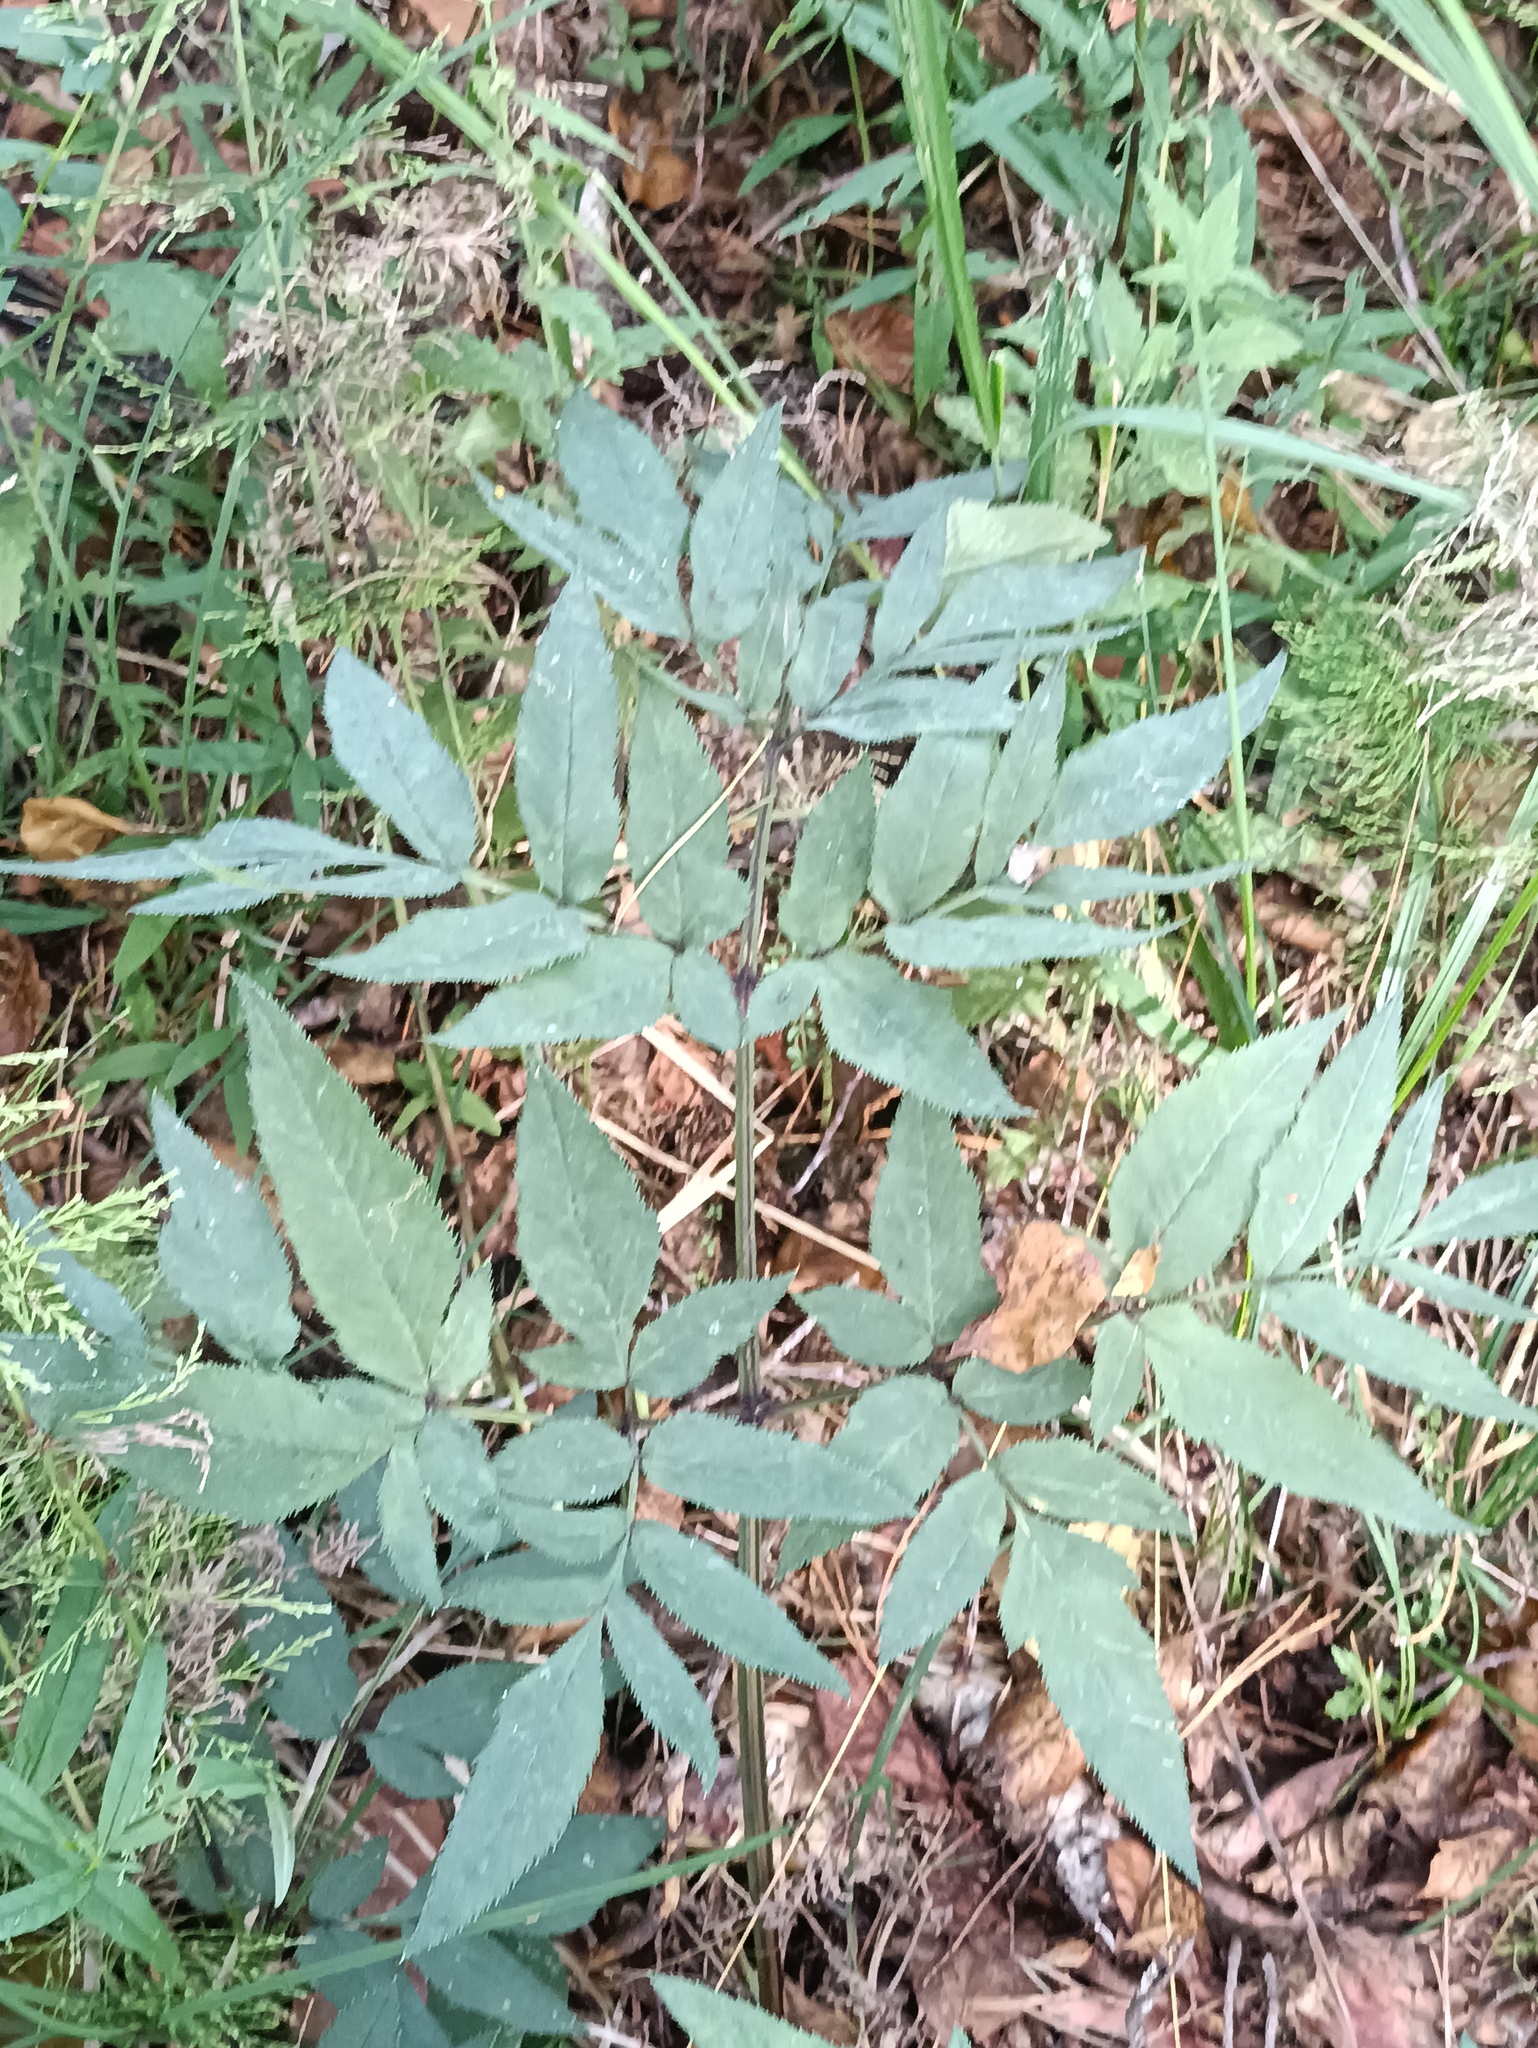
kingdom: Plantae
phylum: Tracheophyta
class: Magnoliopsida
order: Apiales
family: Apiaceae
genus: Angelica
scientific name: Angelica sylvestris
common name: Wild angelica
